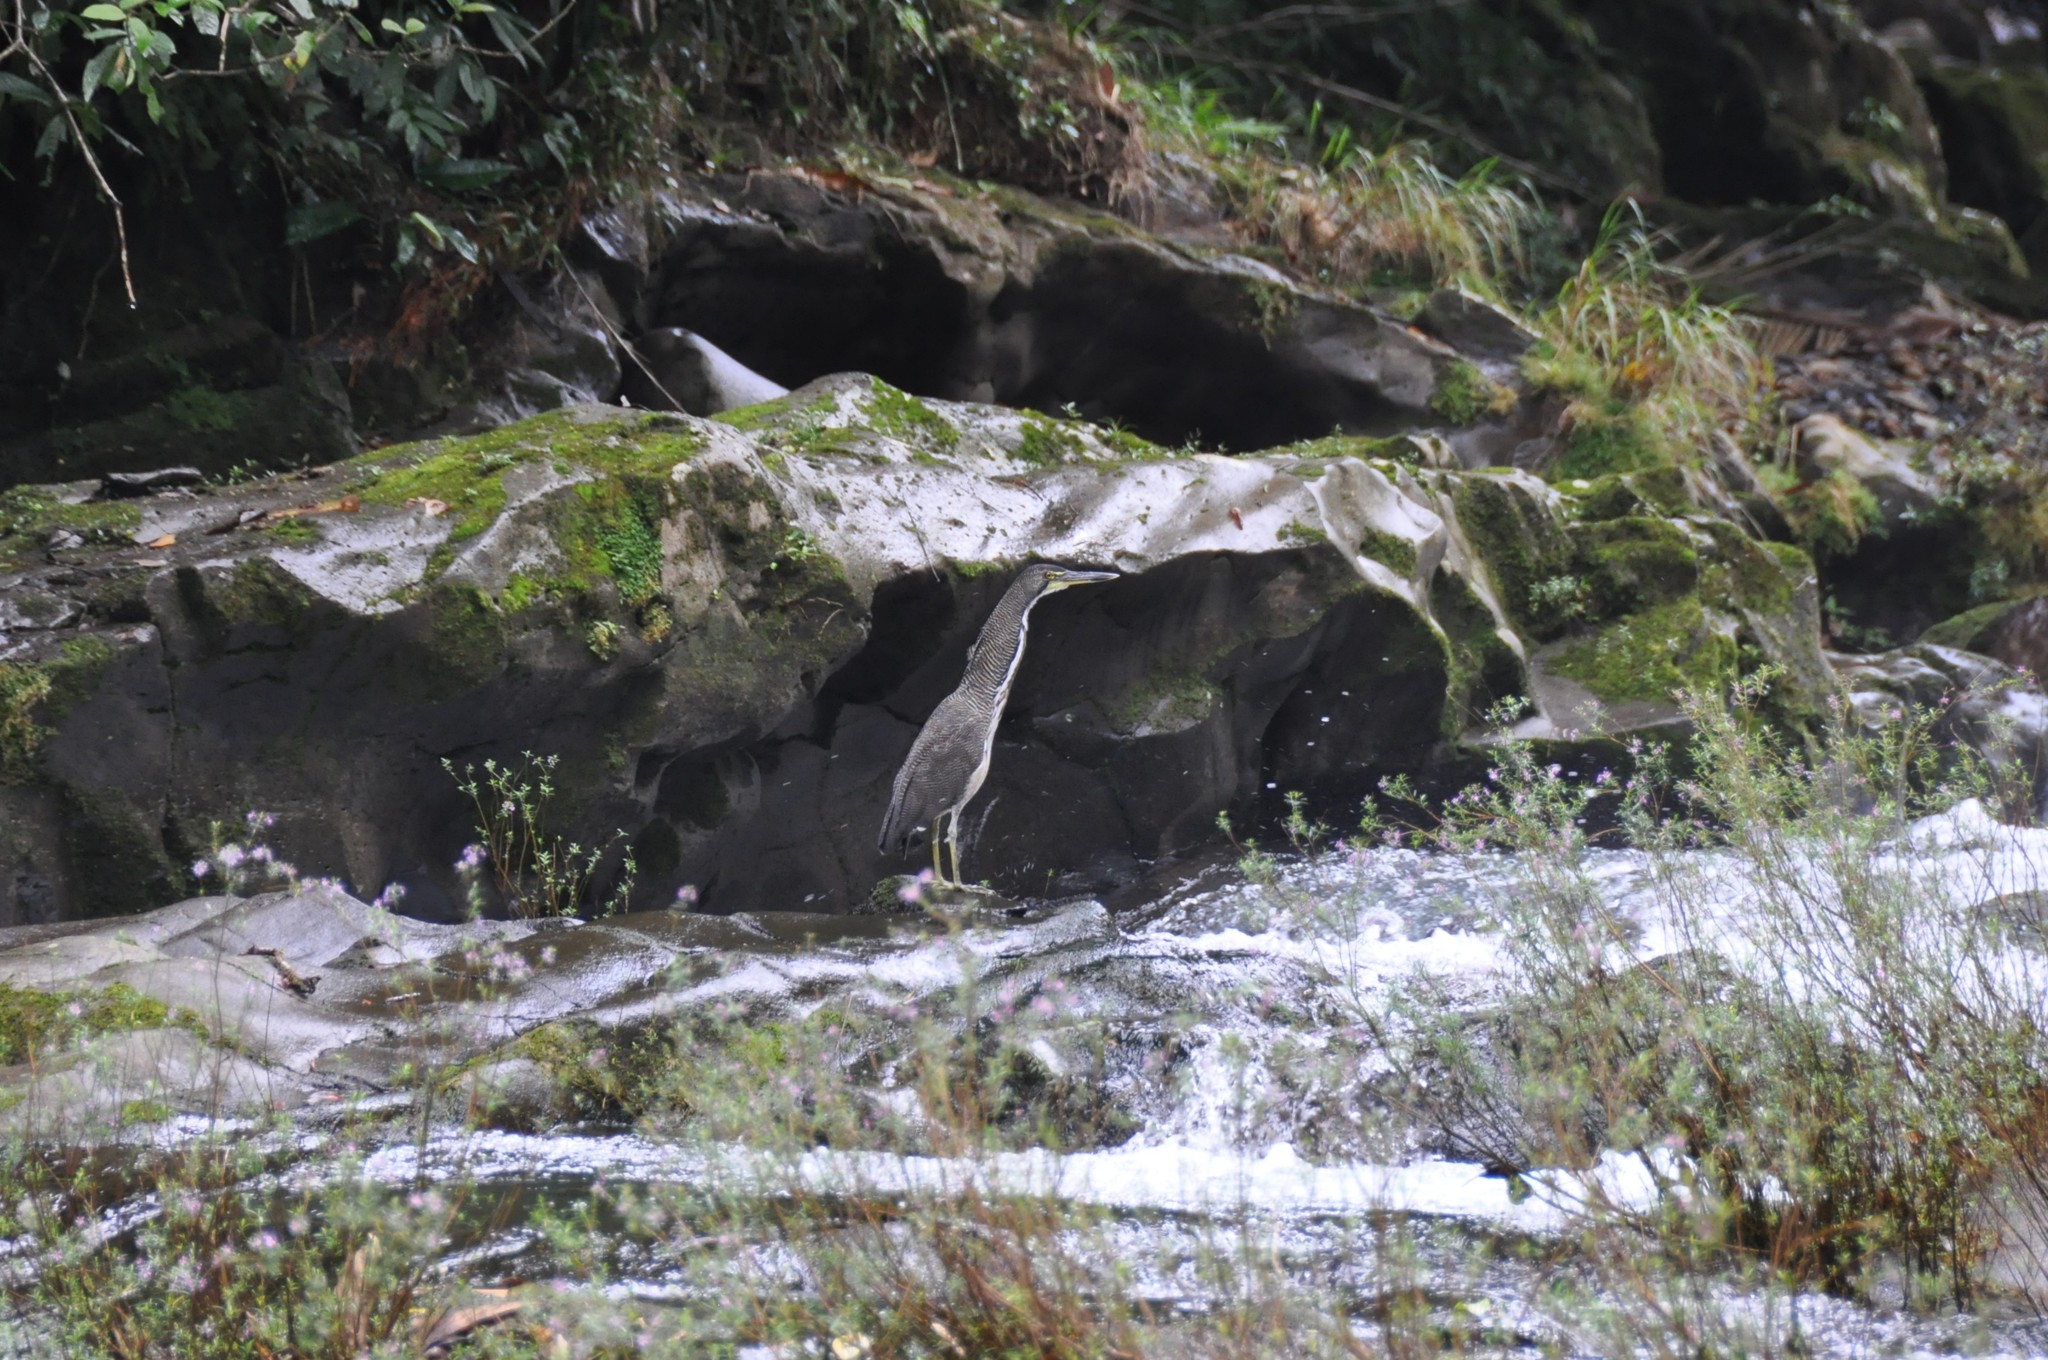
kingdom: Animalia
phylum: Chordata
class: Aves
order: Pelecaniformes
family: Ardeidae
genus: Tigrisoma
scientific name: Tigrisoma mexicanum
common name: Bare-throated tiger-heron
